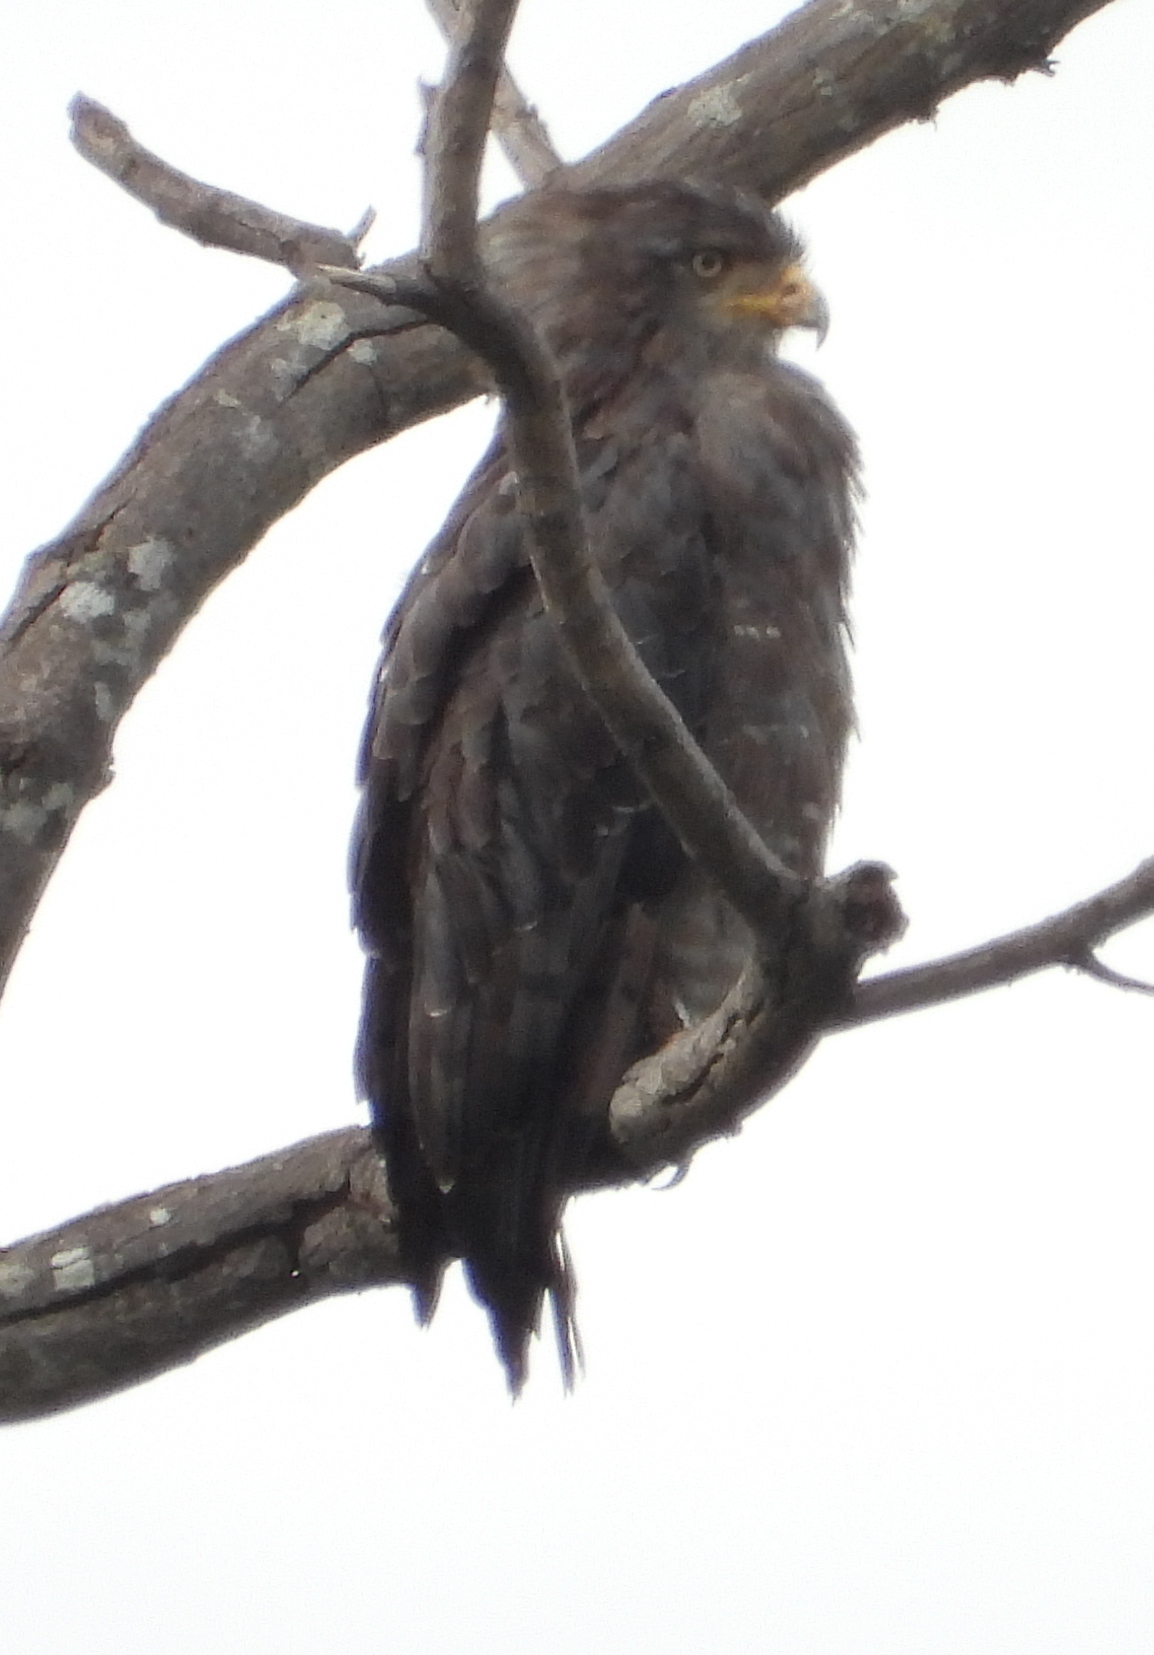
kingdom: Animalia
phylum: Chordata
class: Aves
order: Accipitriformes
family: Accipitridae
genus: Circaetus
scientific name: Circaetus cinerascens
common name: Western banded snake eagle
